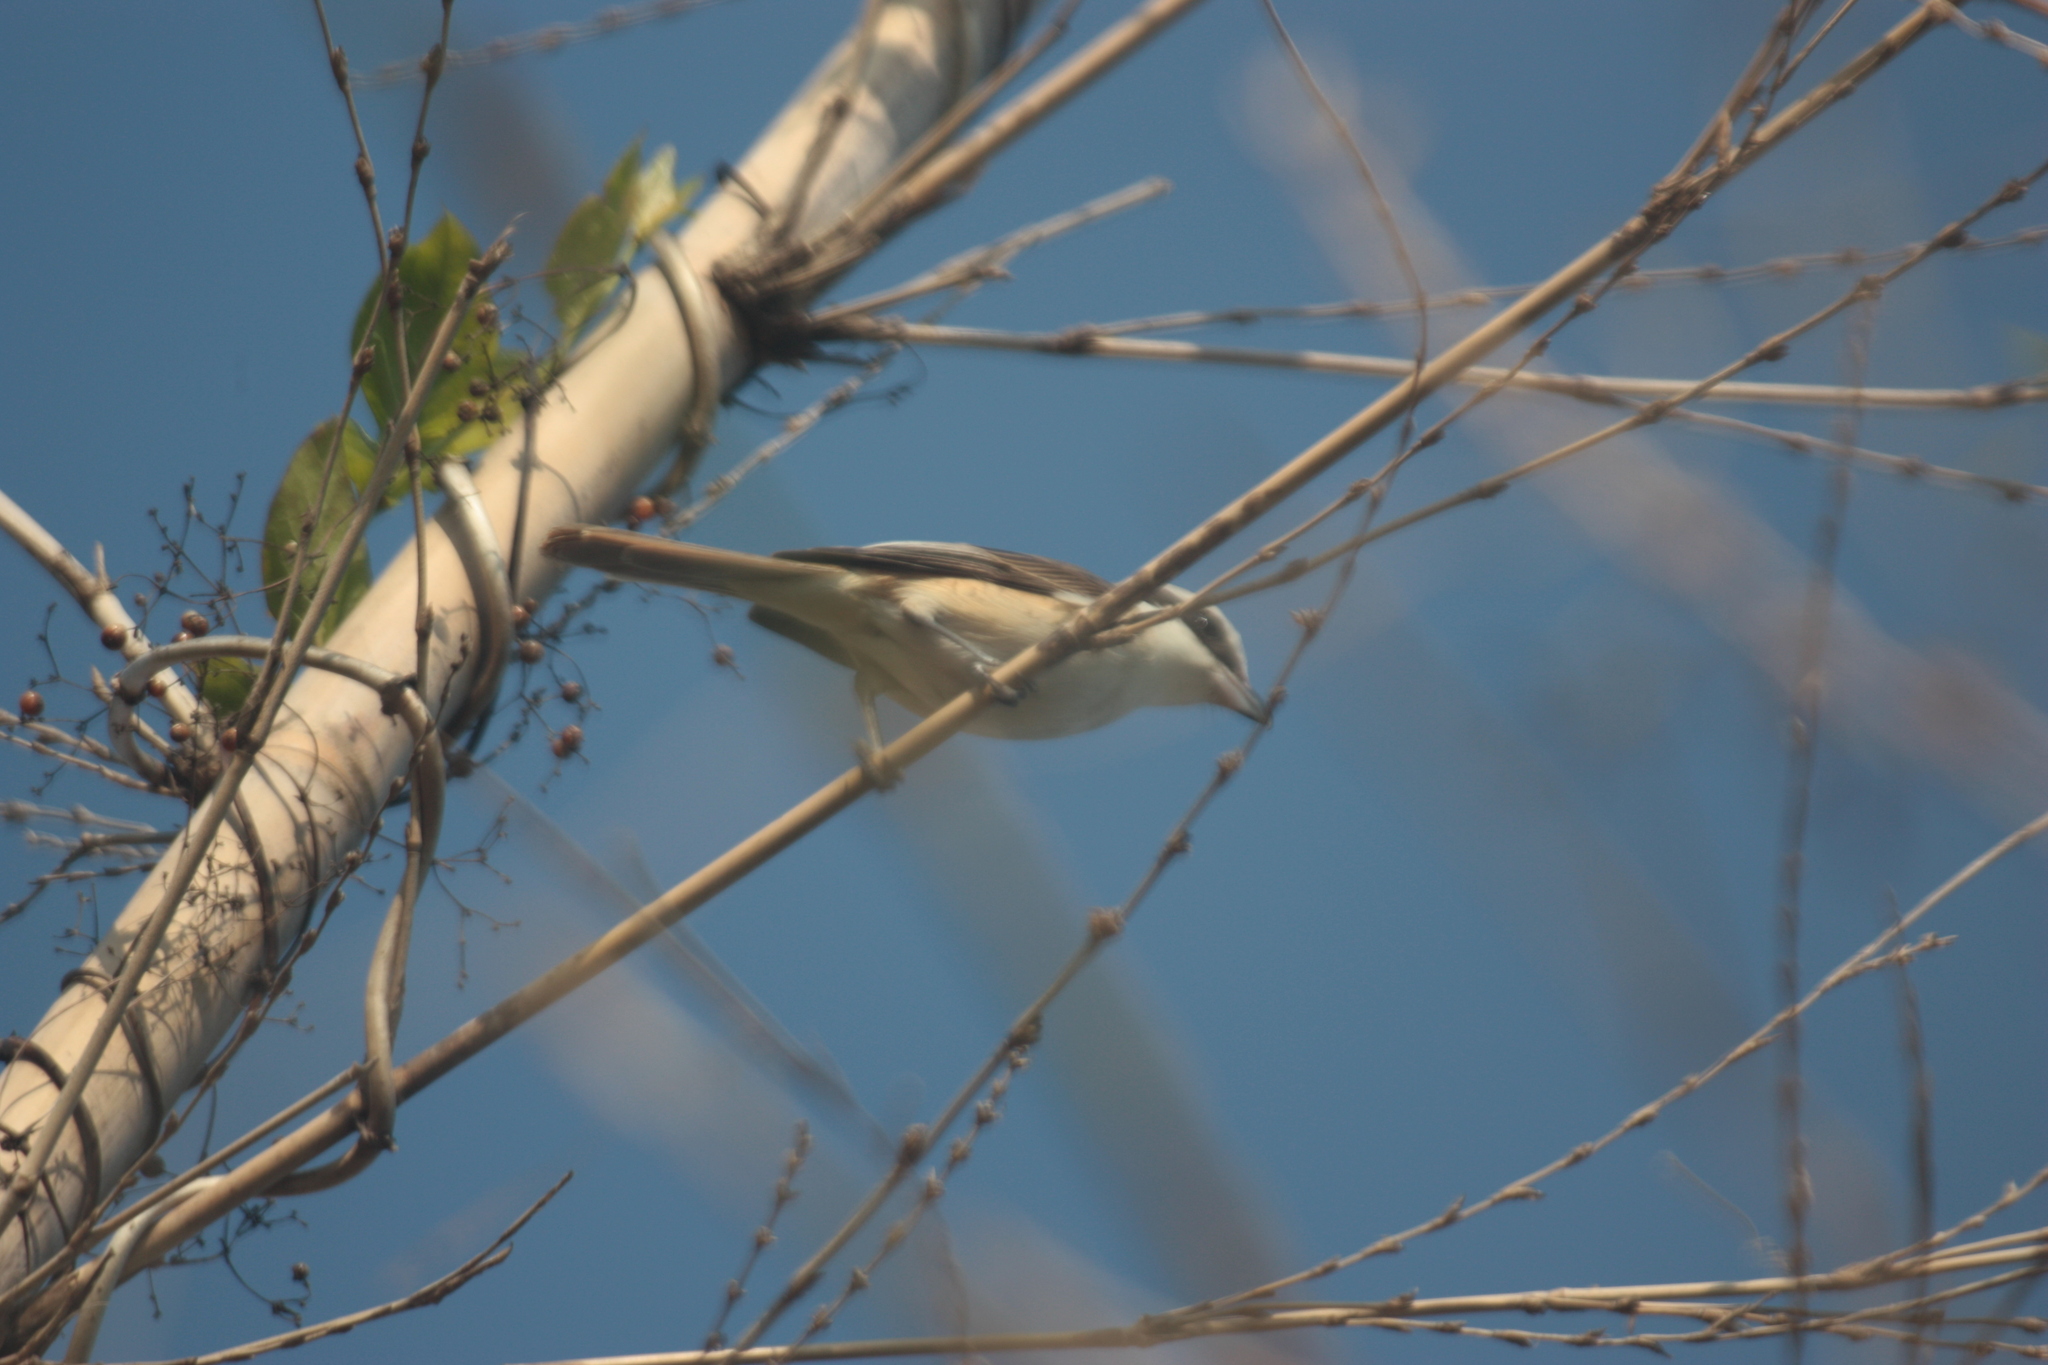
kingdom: Animalia
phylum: Chordata
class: Aves
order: Passeriformes
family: Laniidae
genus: Lanius
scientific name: Lanius cristatus
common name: Brown shrike
